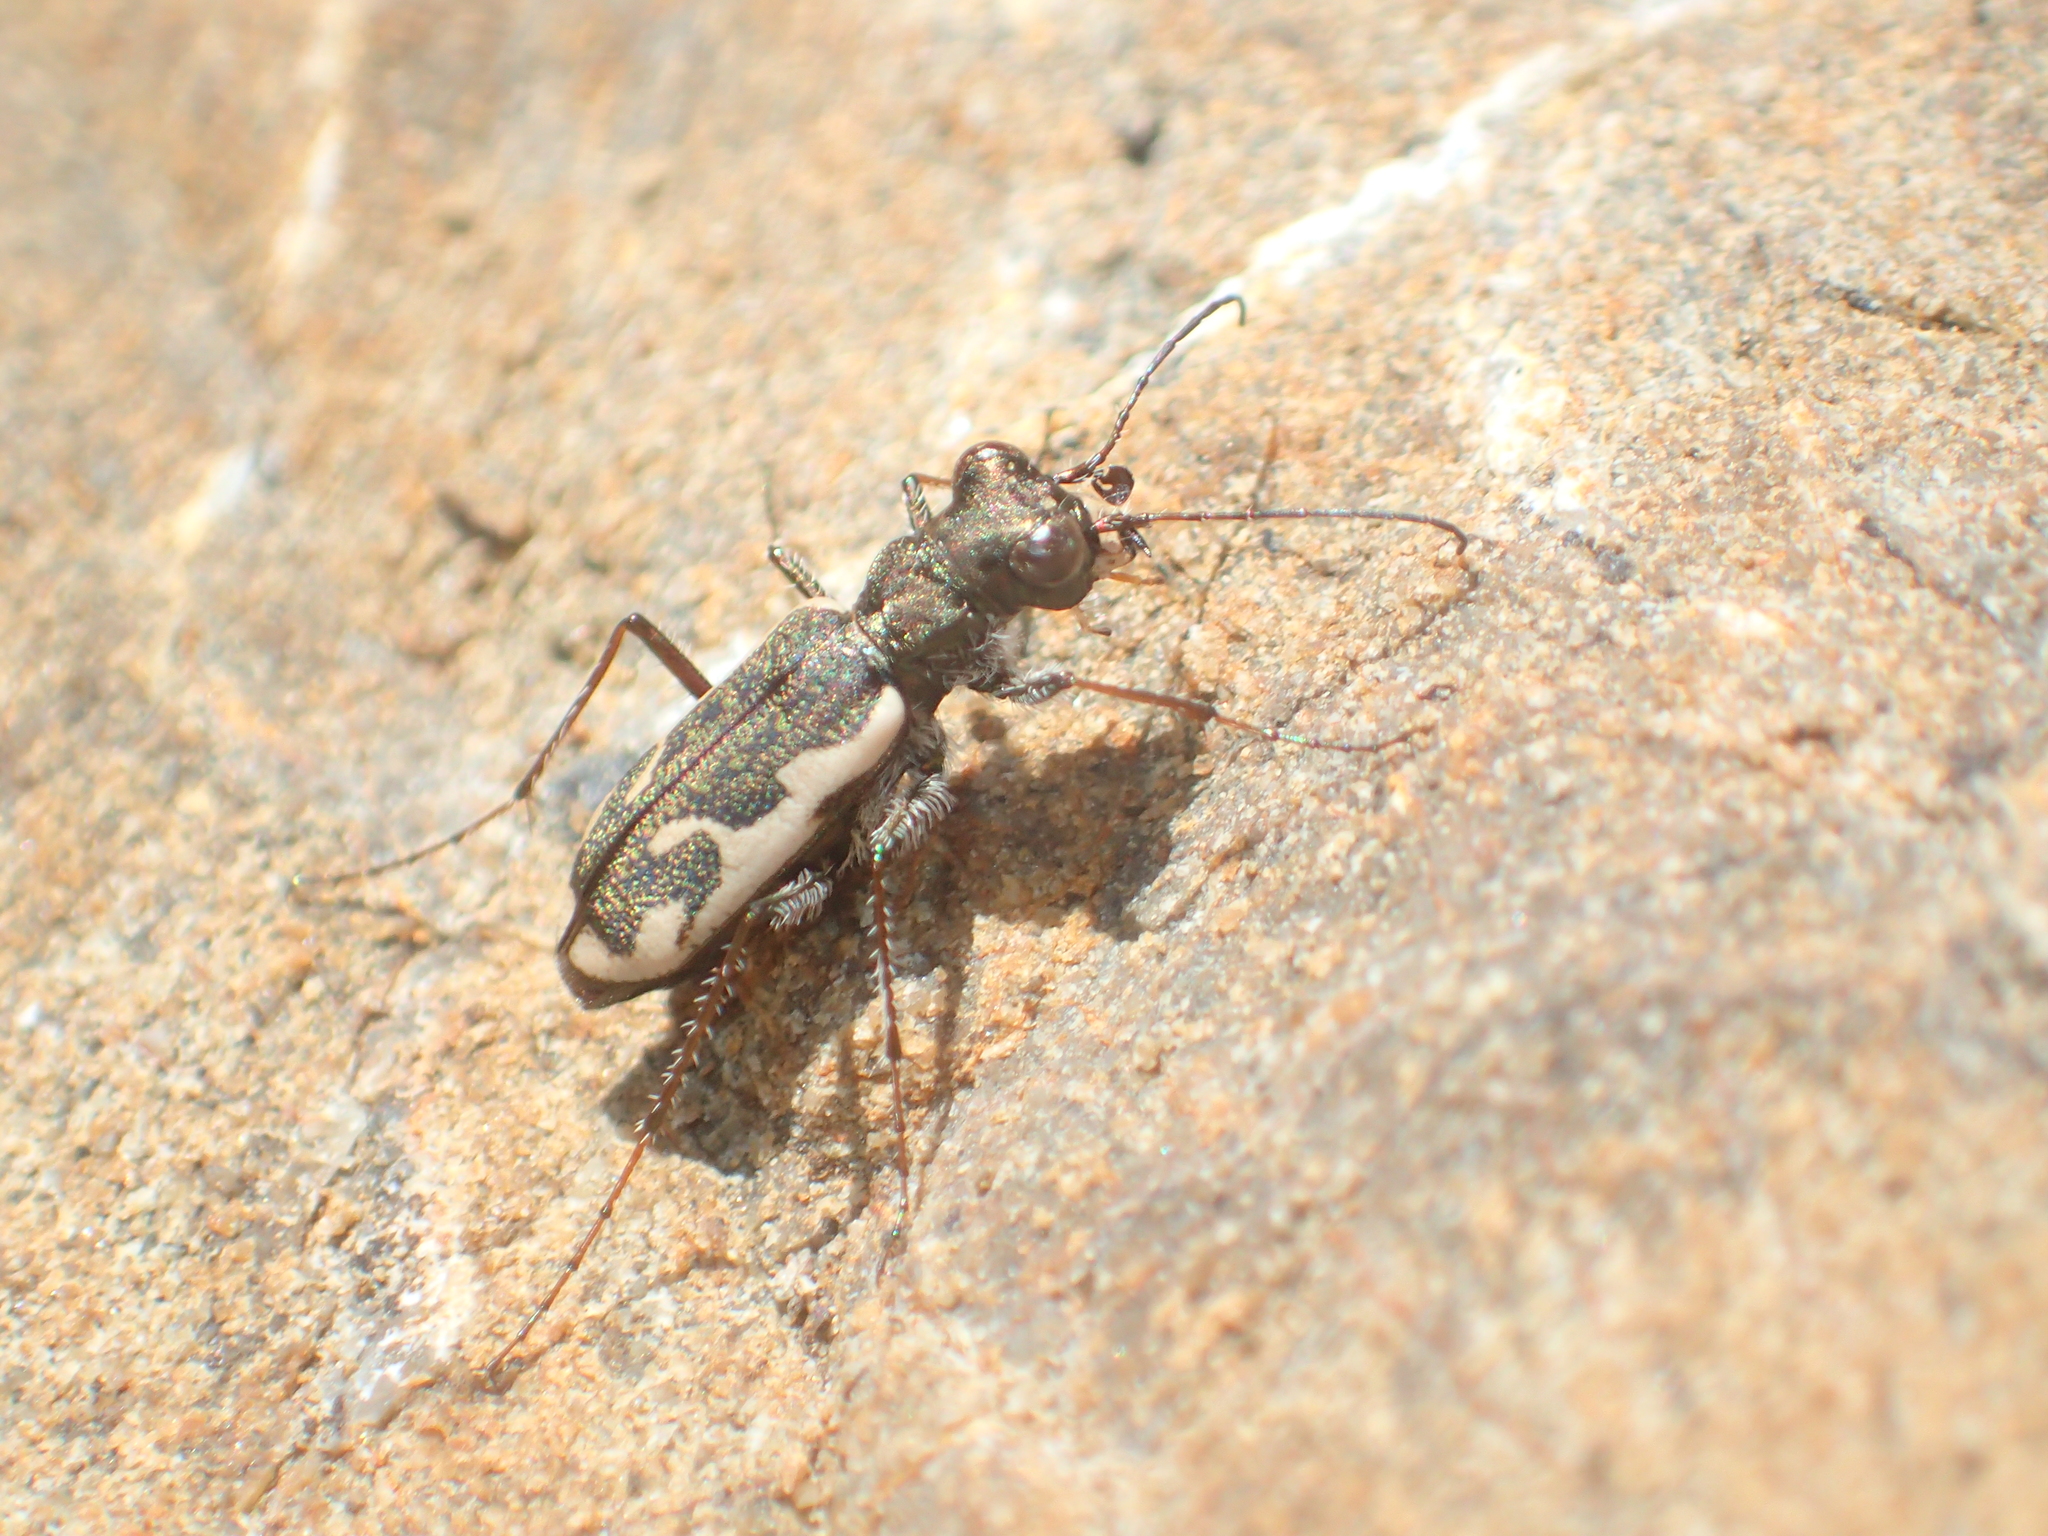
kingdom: Animalia
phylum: Arthropoda
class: Insecta
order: Coleoptera
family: Carabidae
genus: Neocicindela
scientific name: Neocicindela tuberculata
